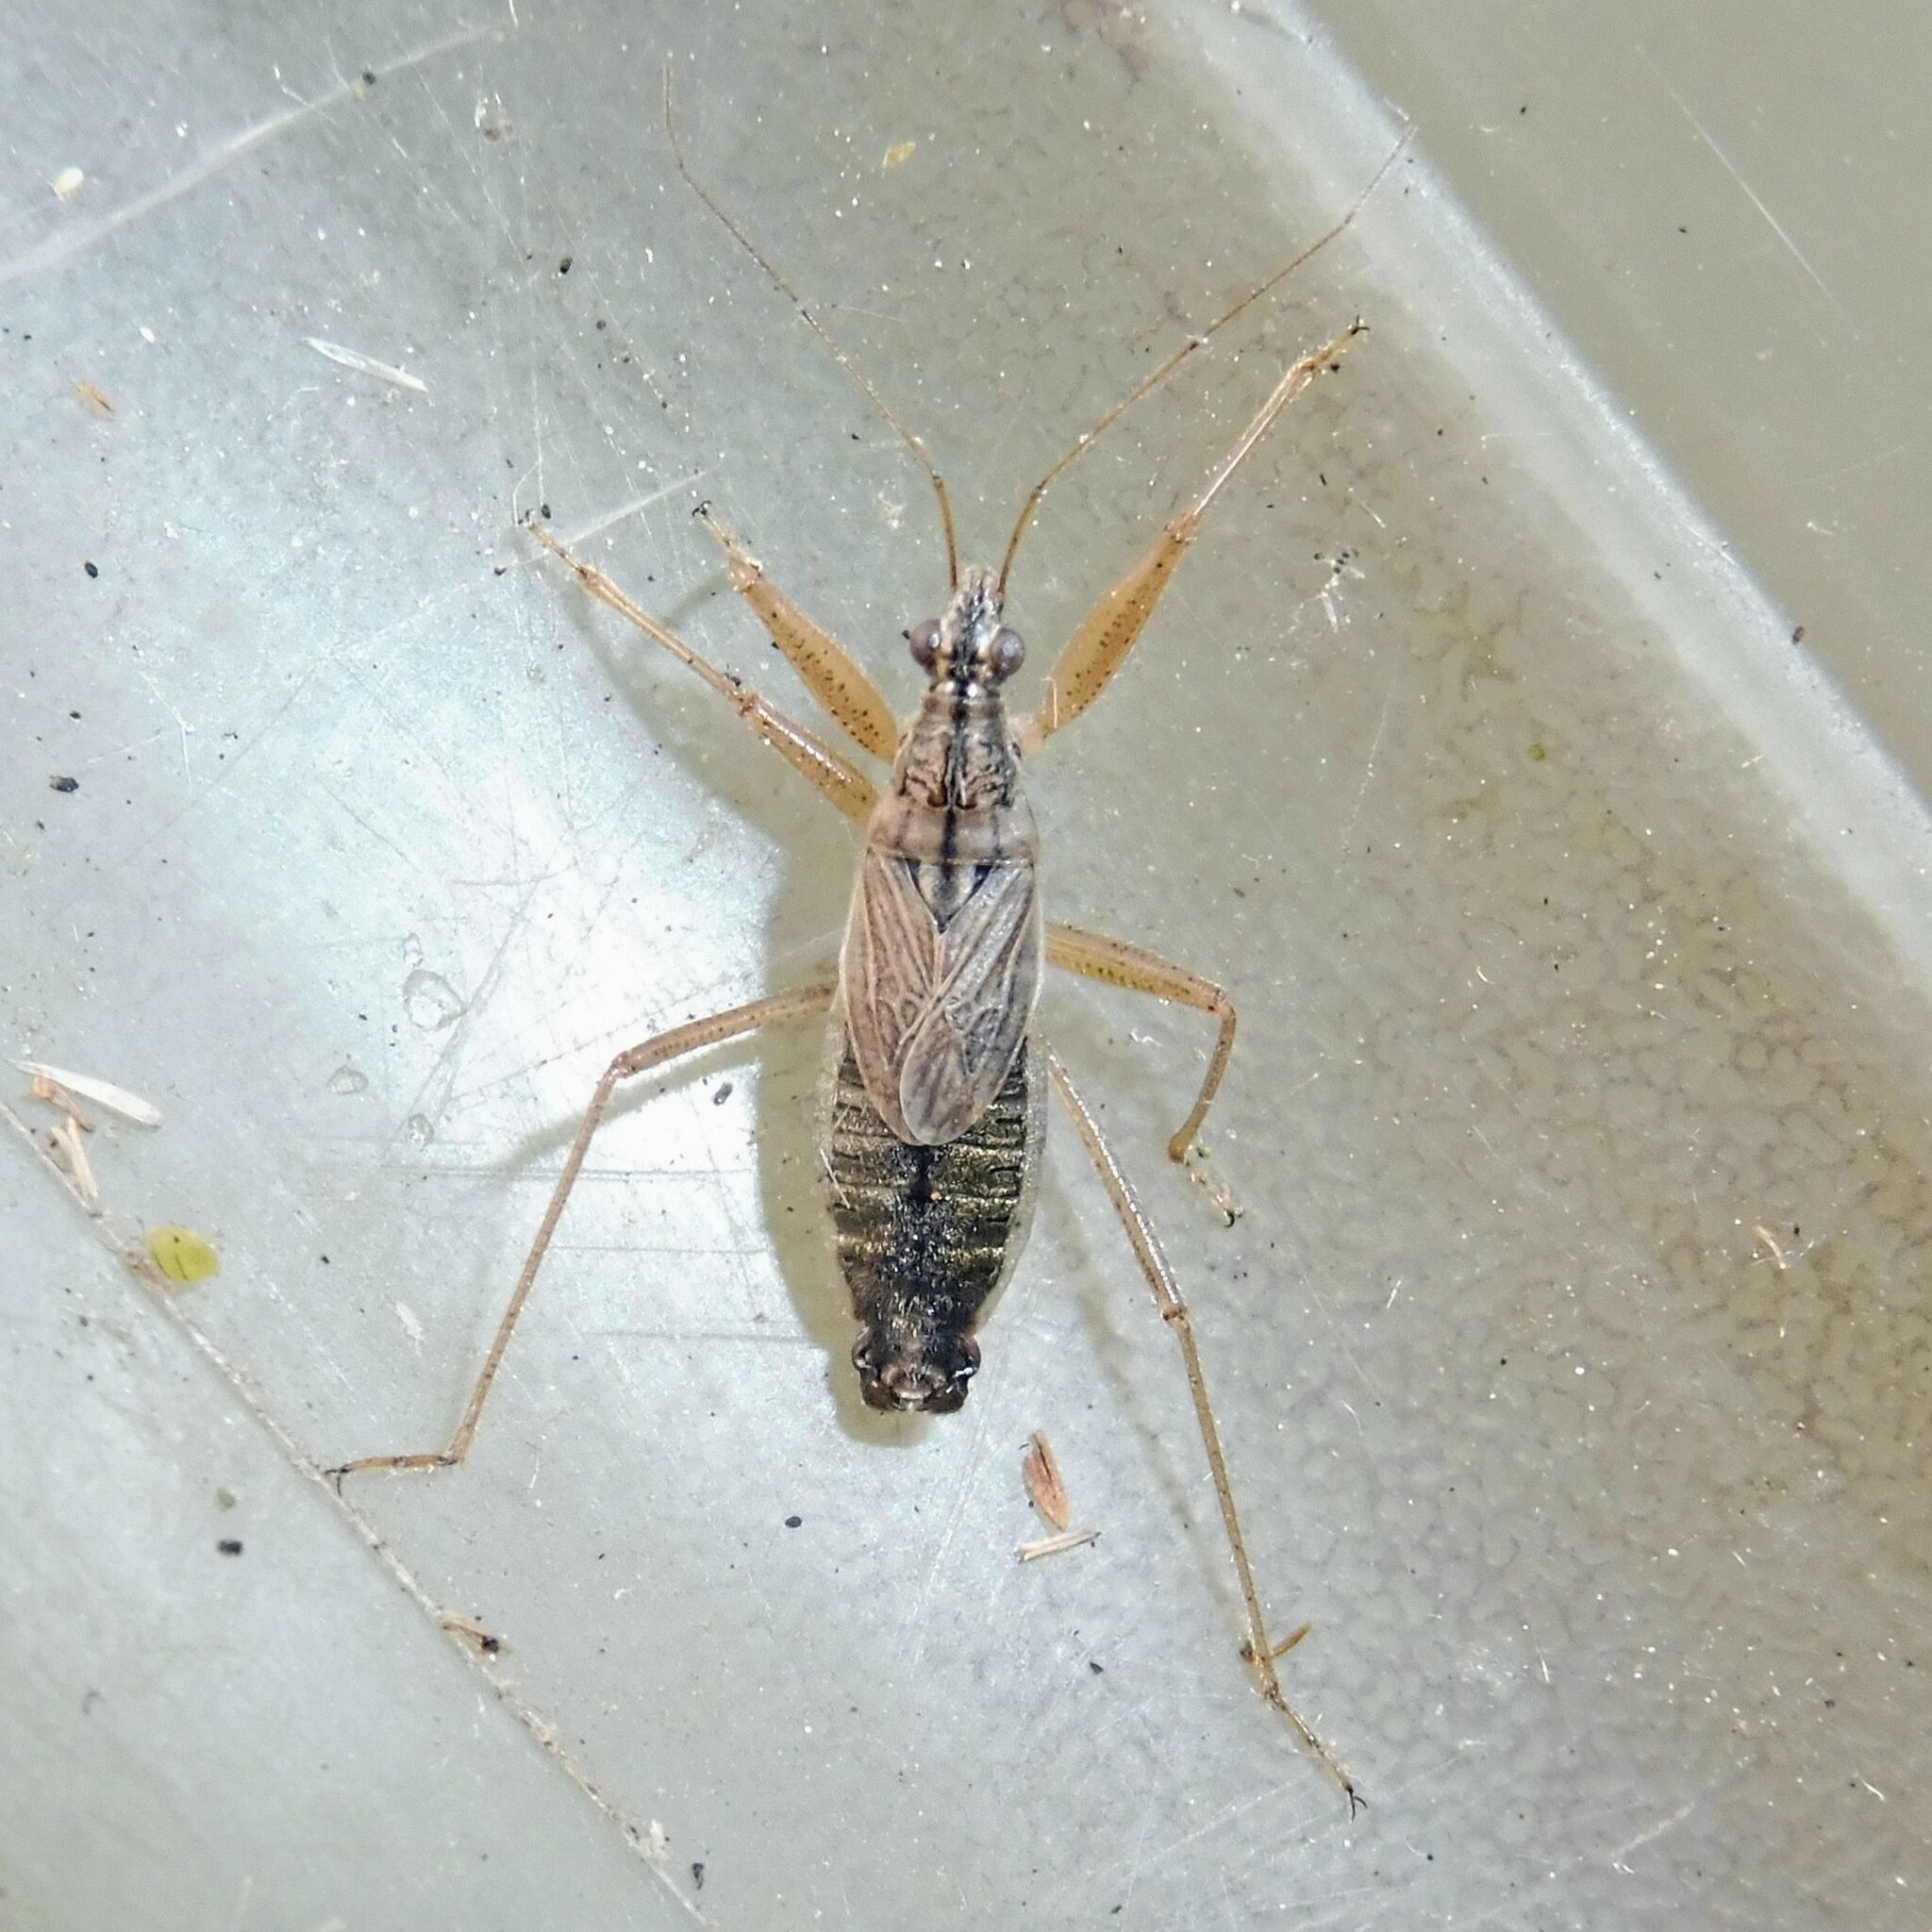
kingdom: Animalia
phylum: Arthropoda
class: Insecta
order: Hemiptera
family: Nabidae
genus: Nabis
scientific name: Nabis flavomarginatus
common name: Broad damselbug
